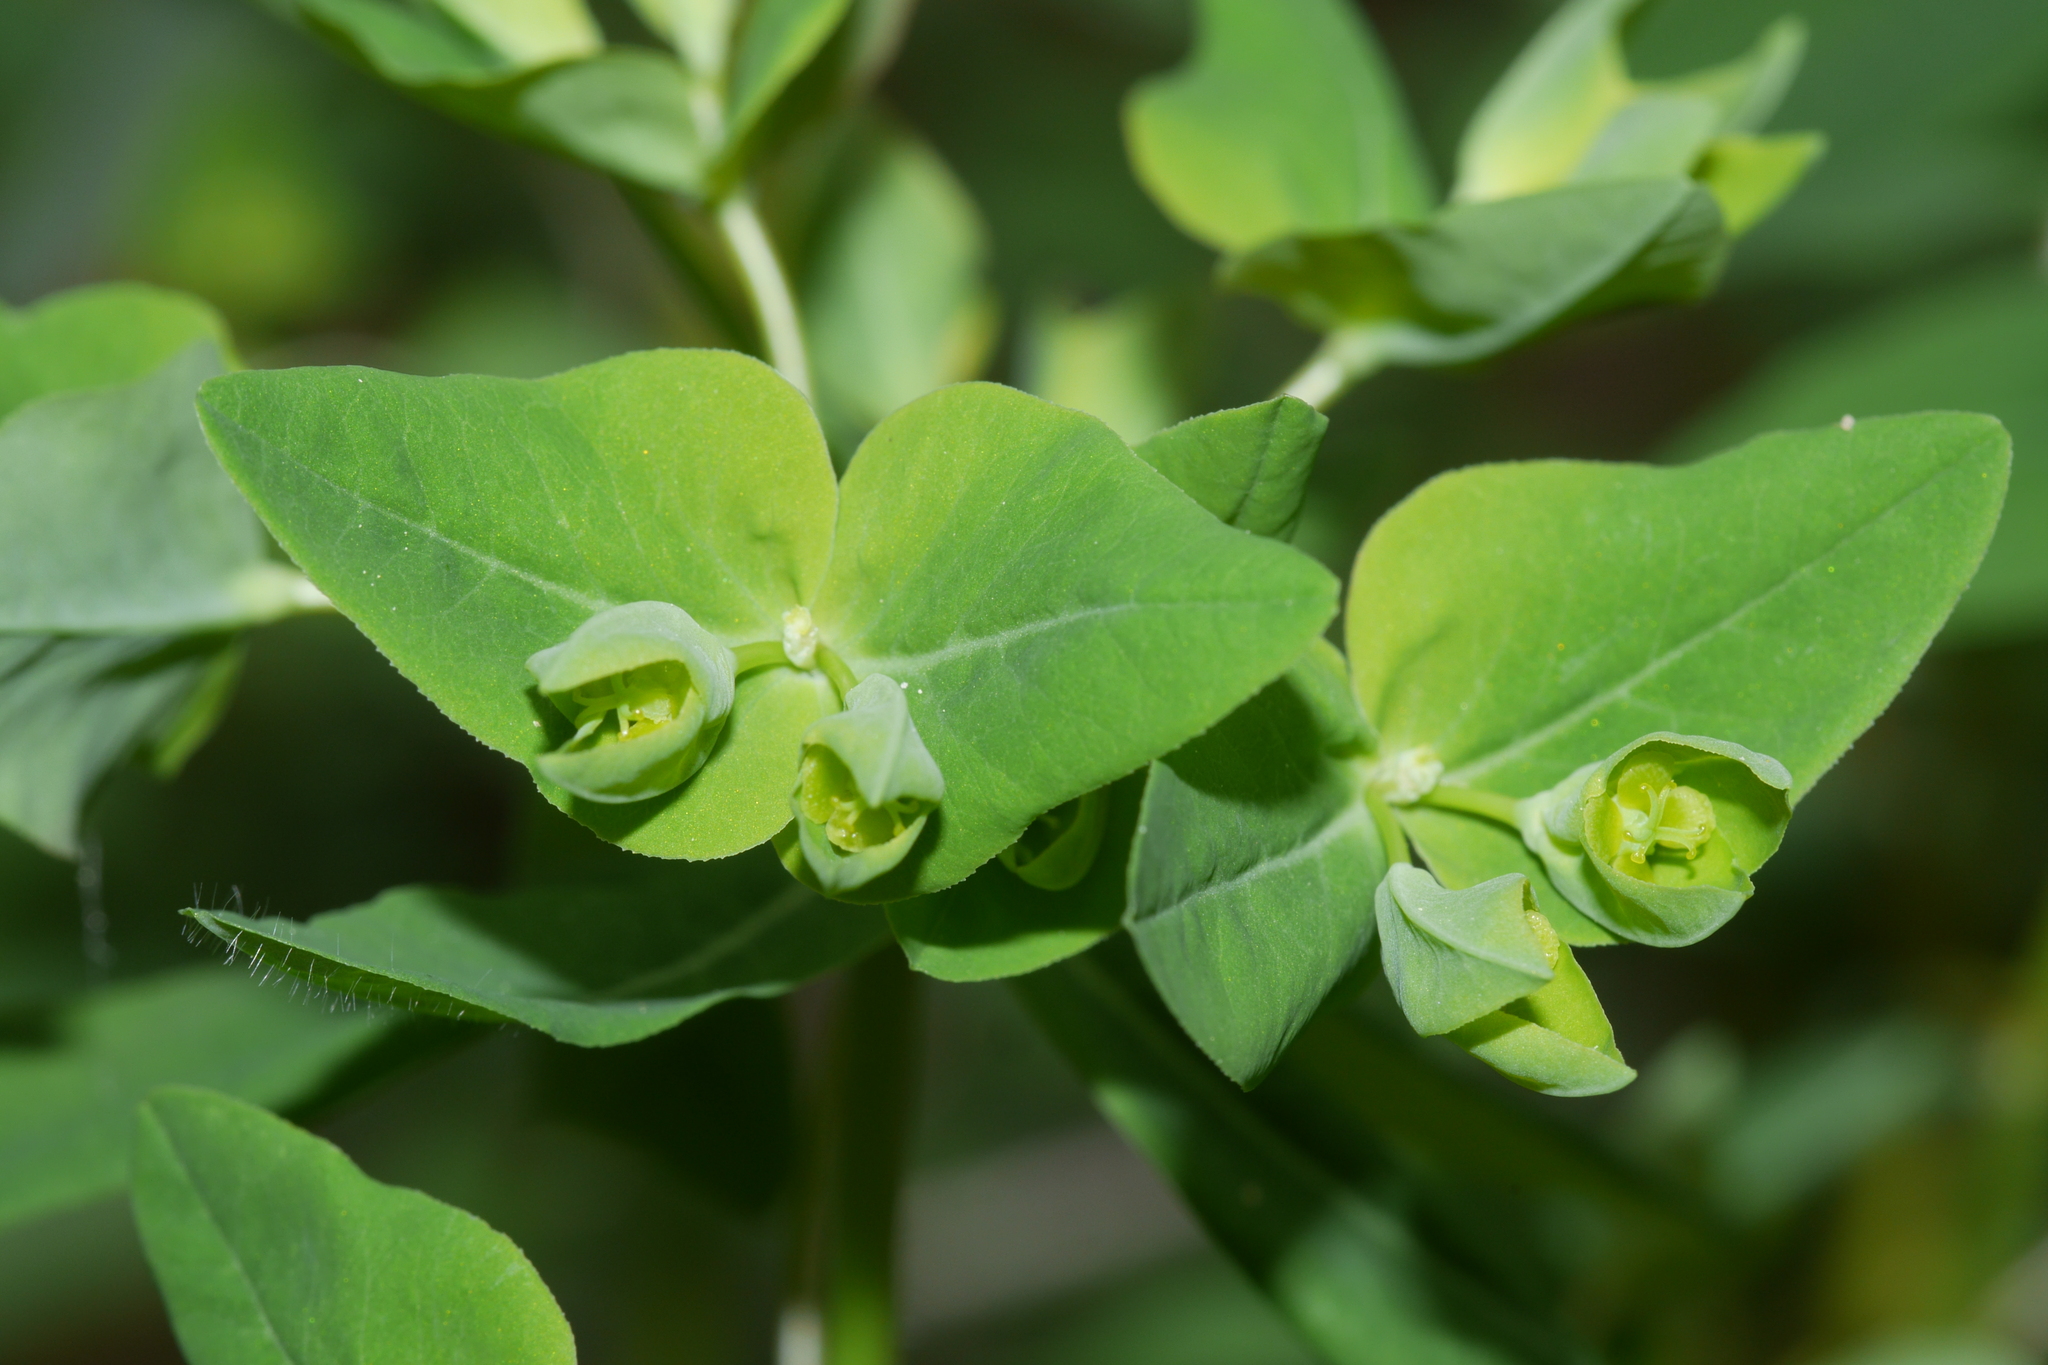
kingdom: Plantae
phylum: Tracheophyta
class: Magnoliopsida
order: Malpighiales
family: Euphorbiaceae
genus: Euphorbia
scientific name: Euphorbia dulcis
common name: Sweet spurge
